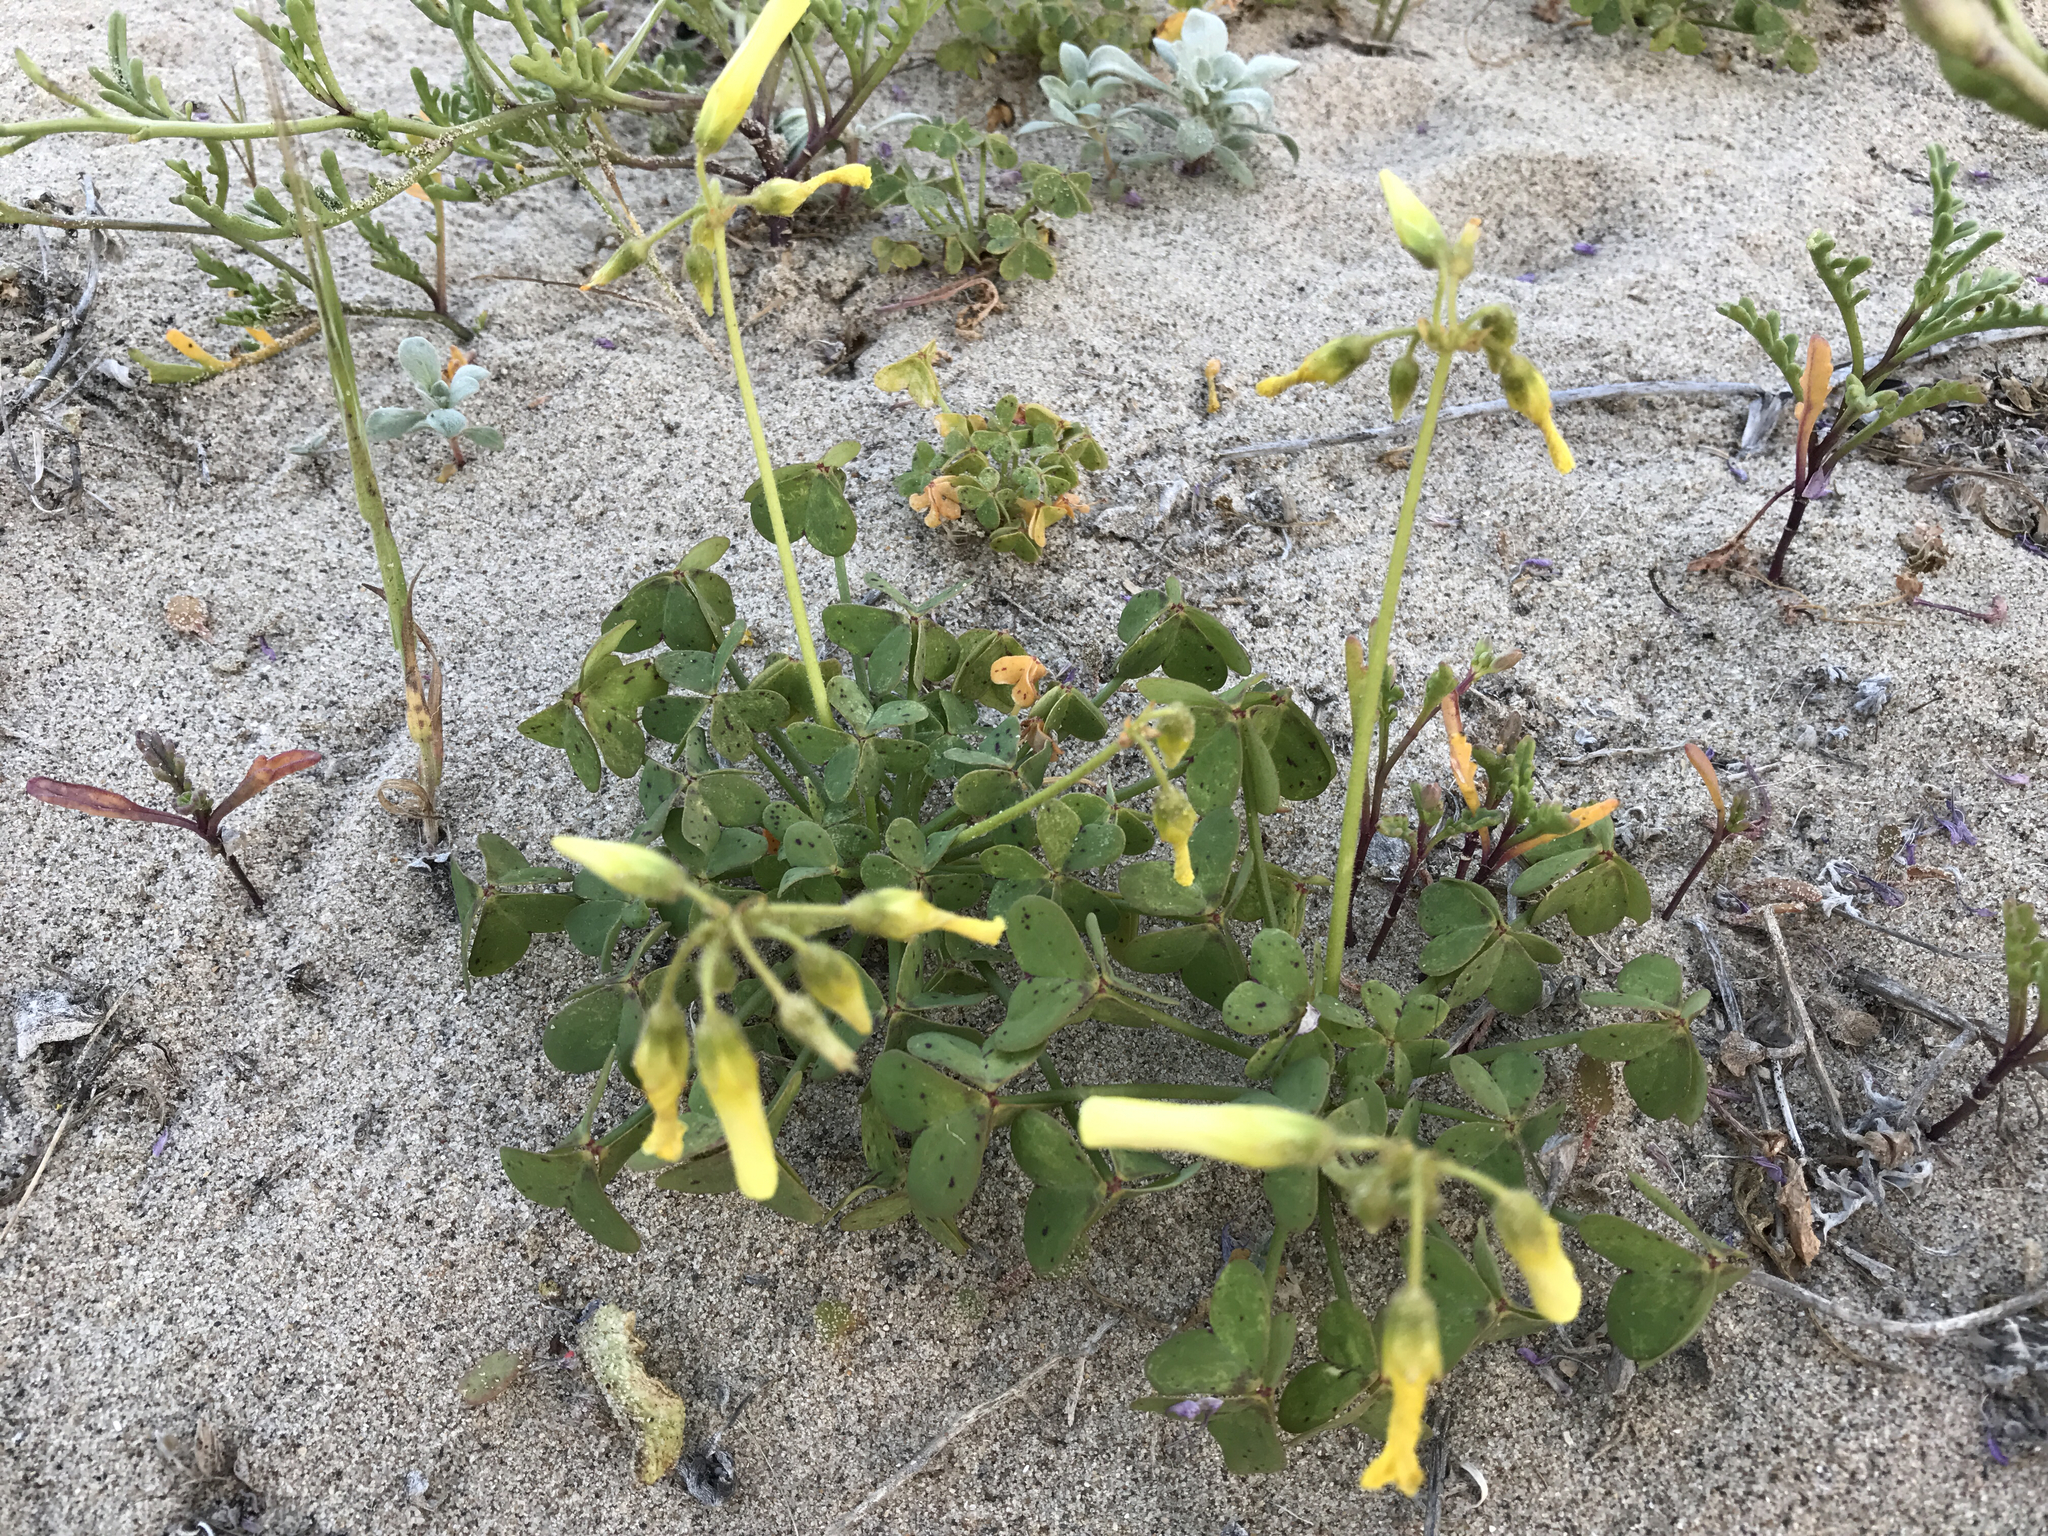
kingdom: Plantae
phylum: Tracheophyta
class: Magnoliopsida
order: Oxalidales
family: Oxalidaceae
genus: Oxalis
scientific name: Oxalis pes-caprae
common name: Bermuda-buttercup
